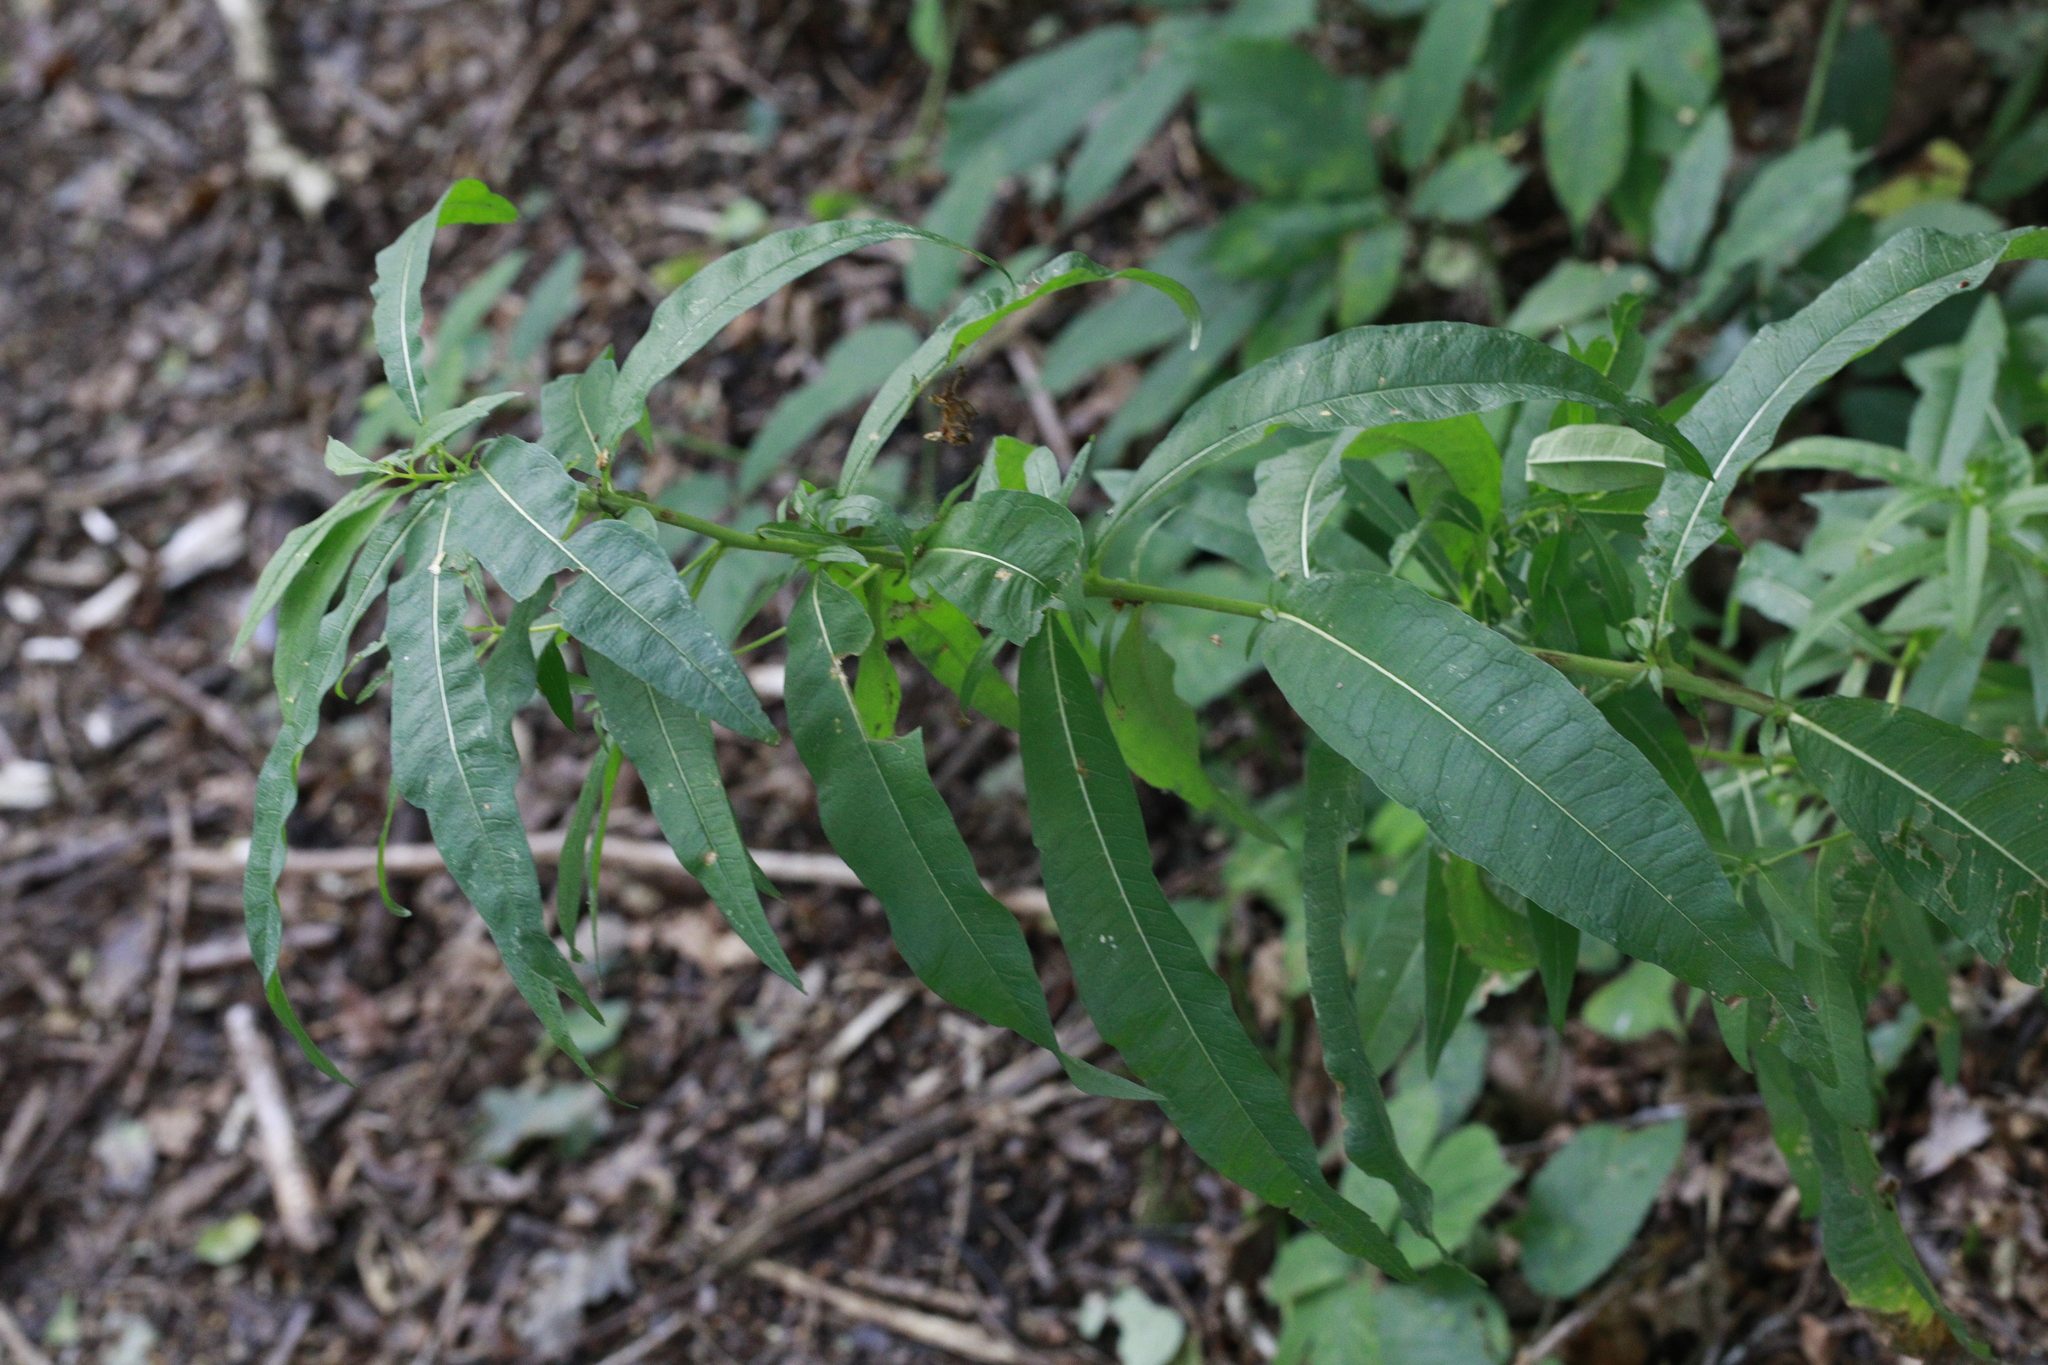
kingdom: Plantae
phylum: Tracheophyta
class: Magnoliopsida
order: Myrtales
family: Onagraceae
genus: Chamaenerion
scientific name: Chamaenerion angustifolium
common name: Fireweed
